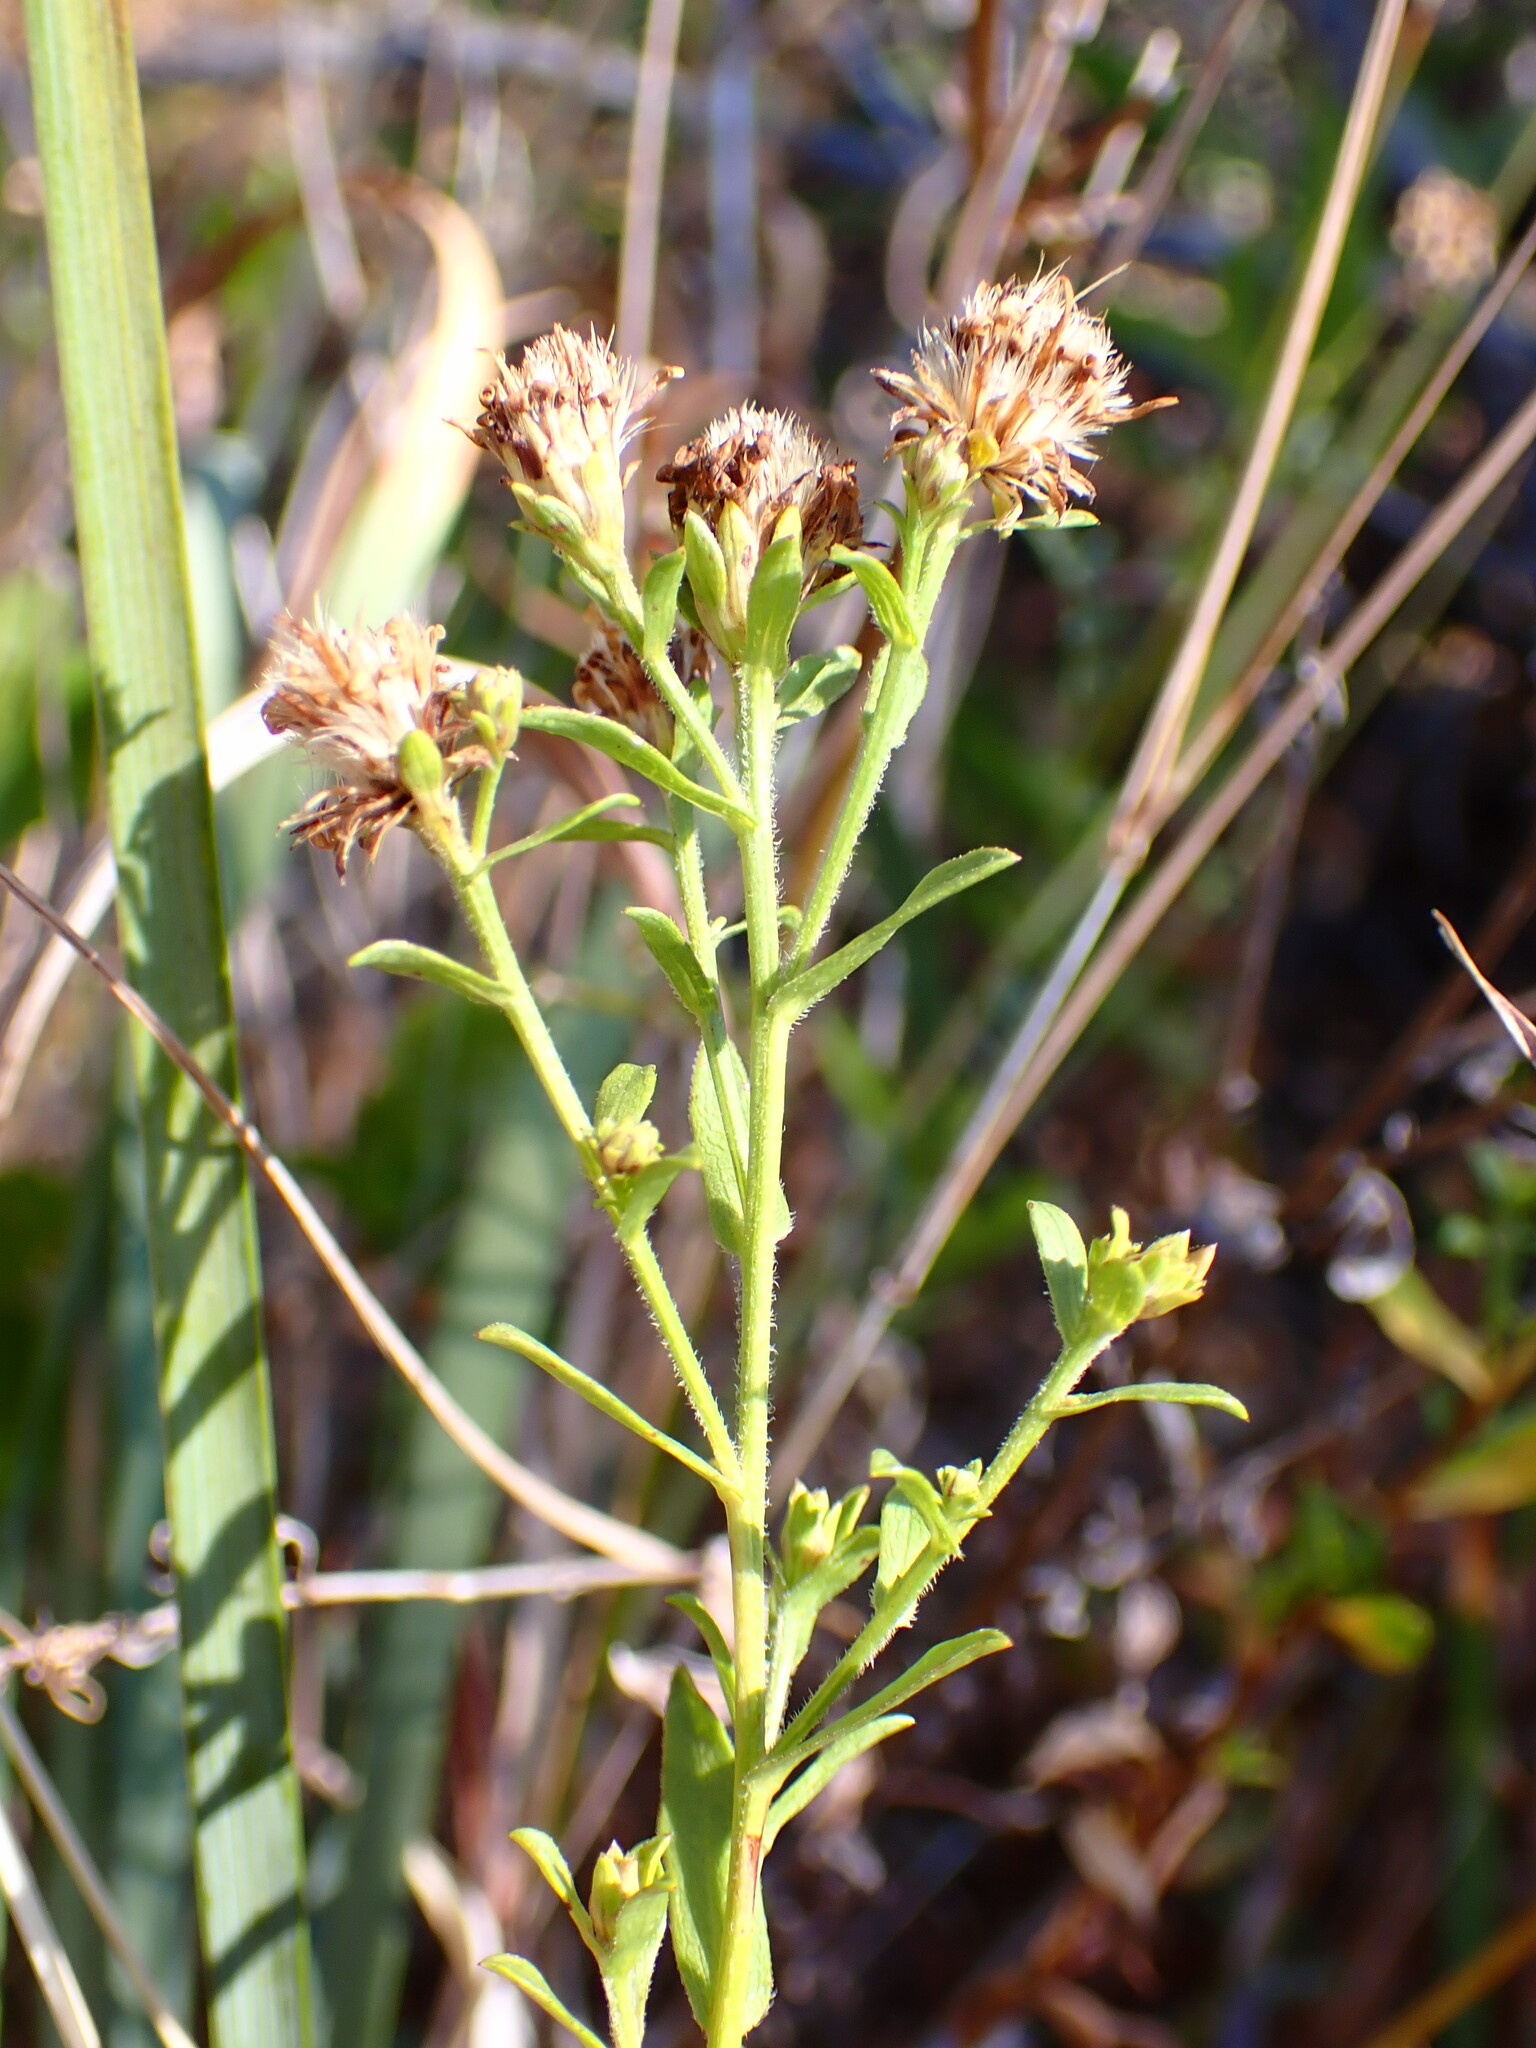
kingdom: Plantae
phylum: Tracheophyta
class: Magnoliopsida
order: Asterales
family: Asteraceae
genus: Eurybia
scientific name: Eurybia radulina
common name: Rough-leaved aster
